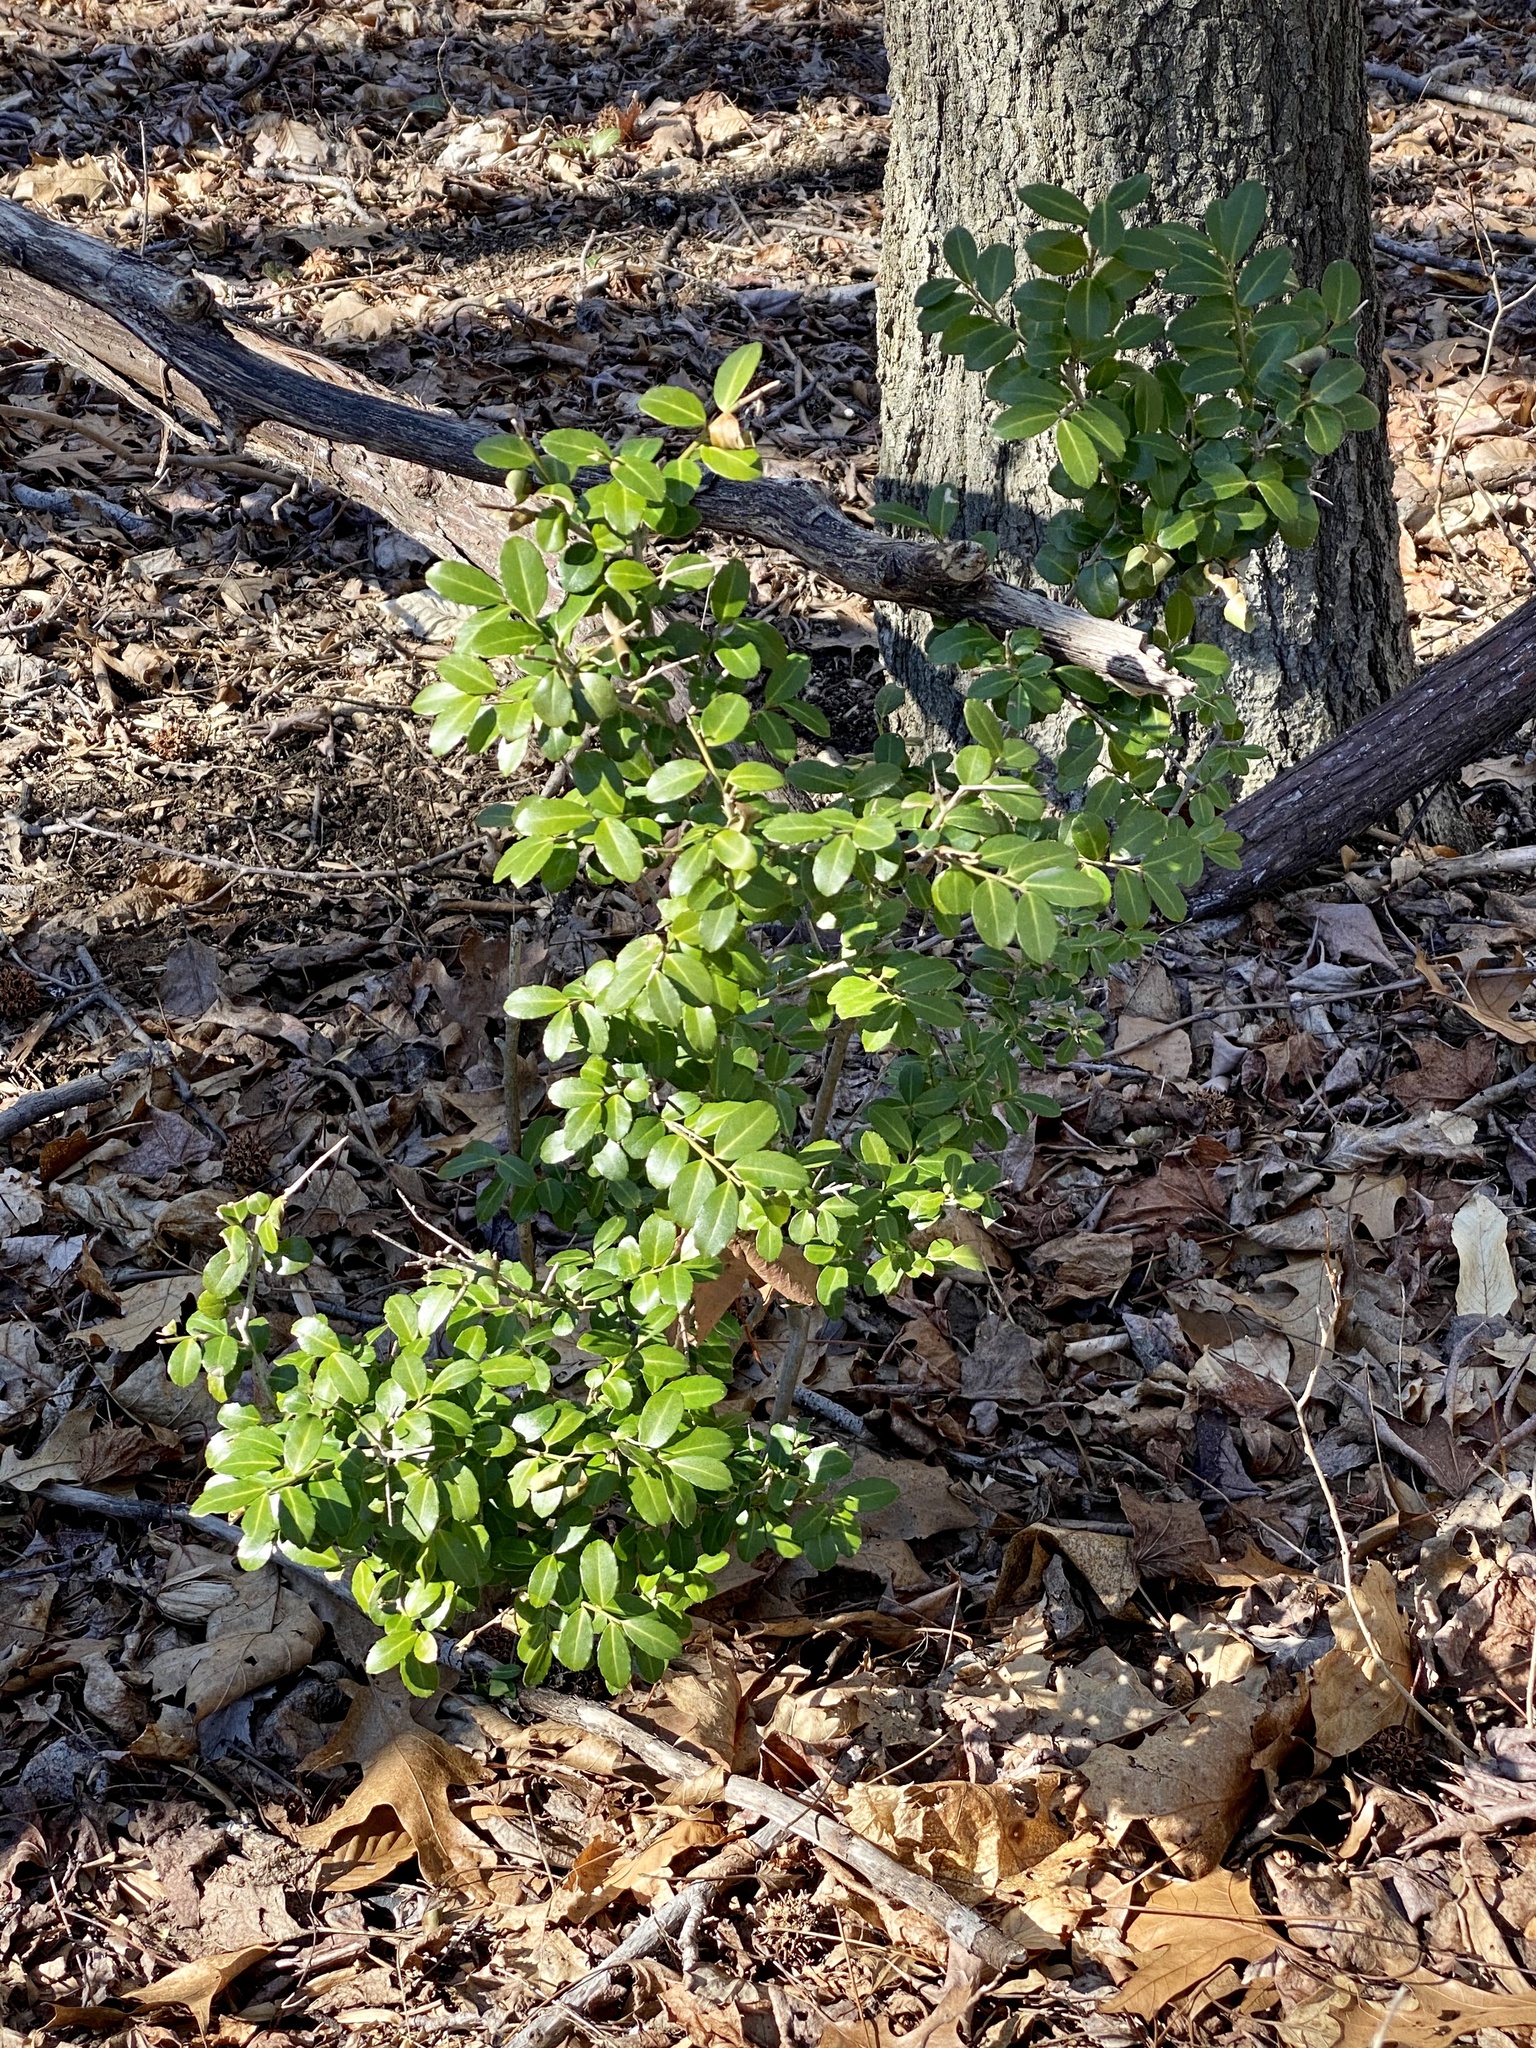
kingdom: Plantae
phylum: Tracheophyta
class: Magnoliopsida
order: Aquifoliales
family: Aquifoliaceae
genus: Ilex
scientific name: Ilex crenata
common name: Japanese holly
